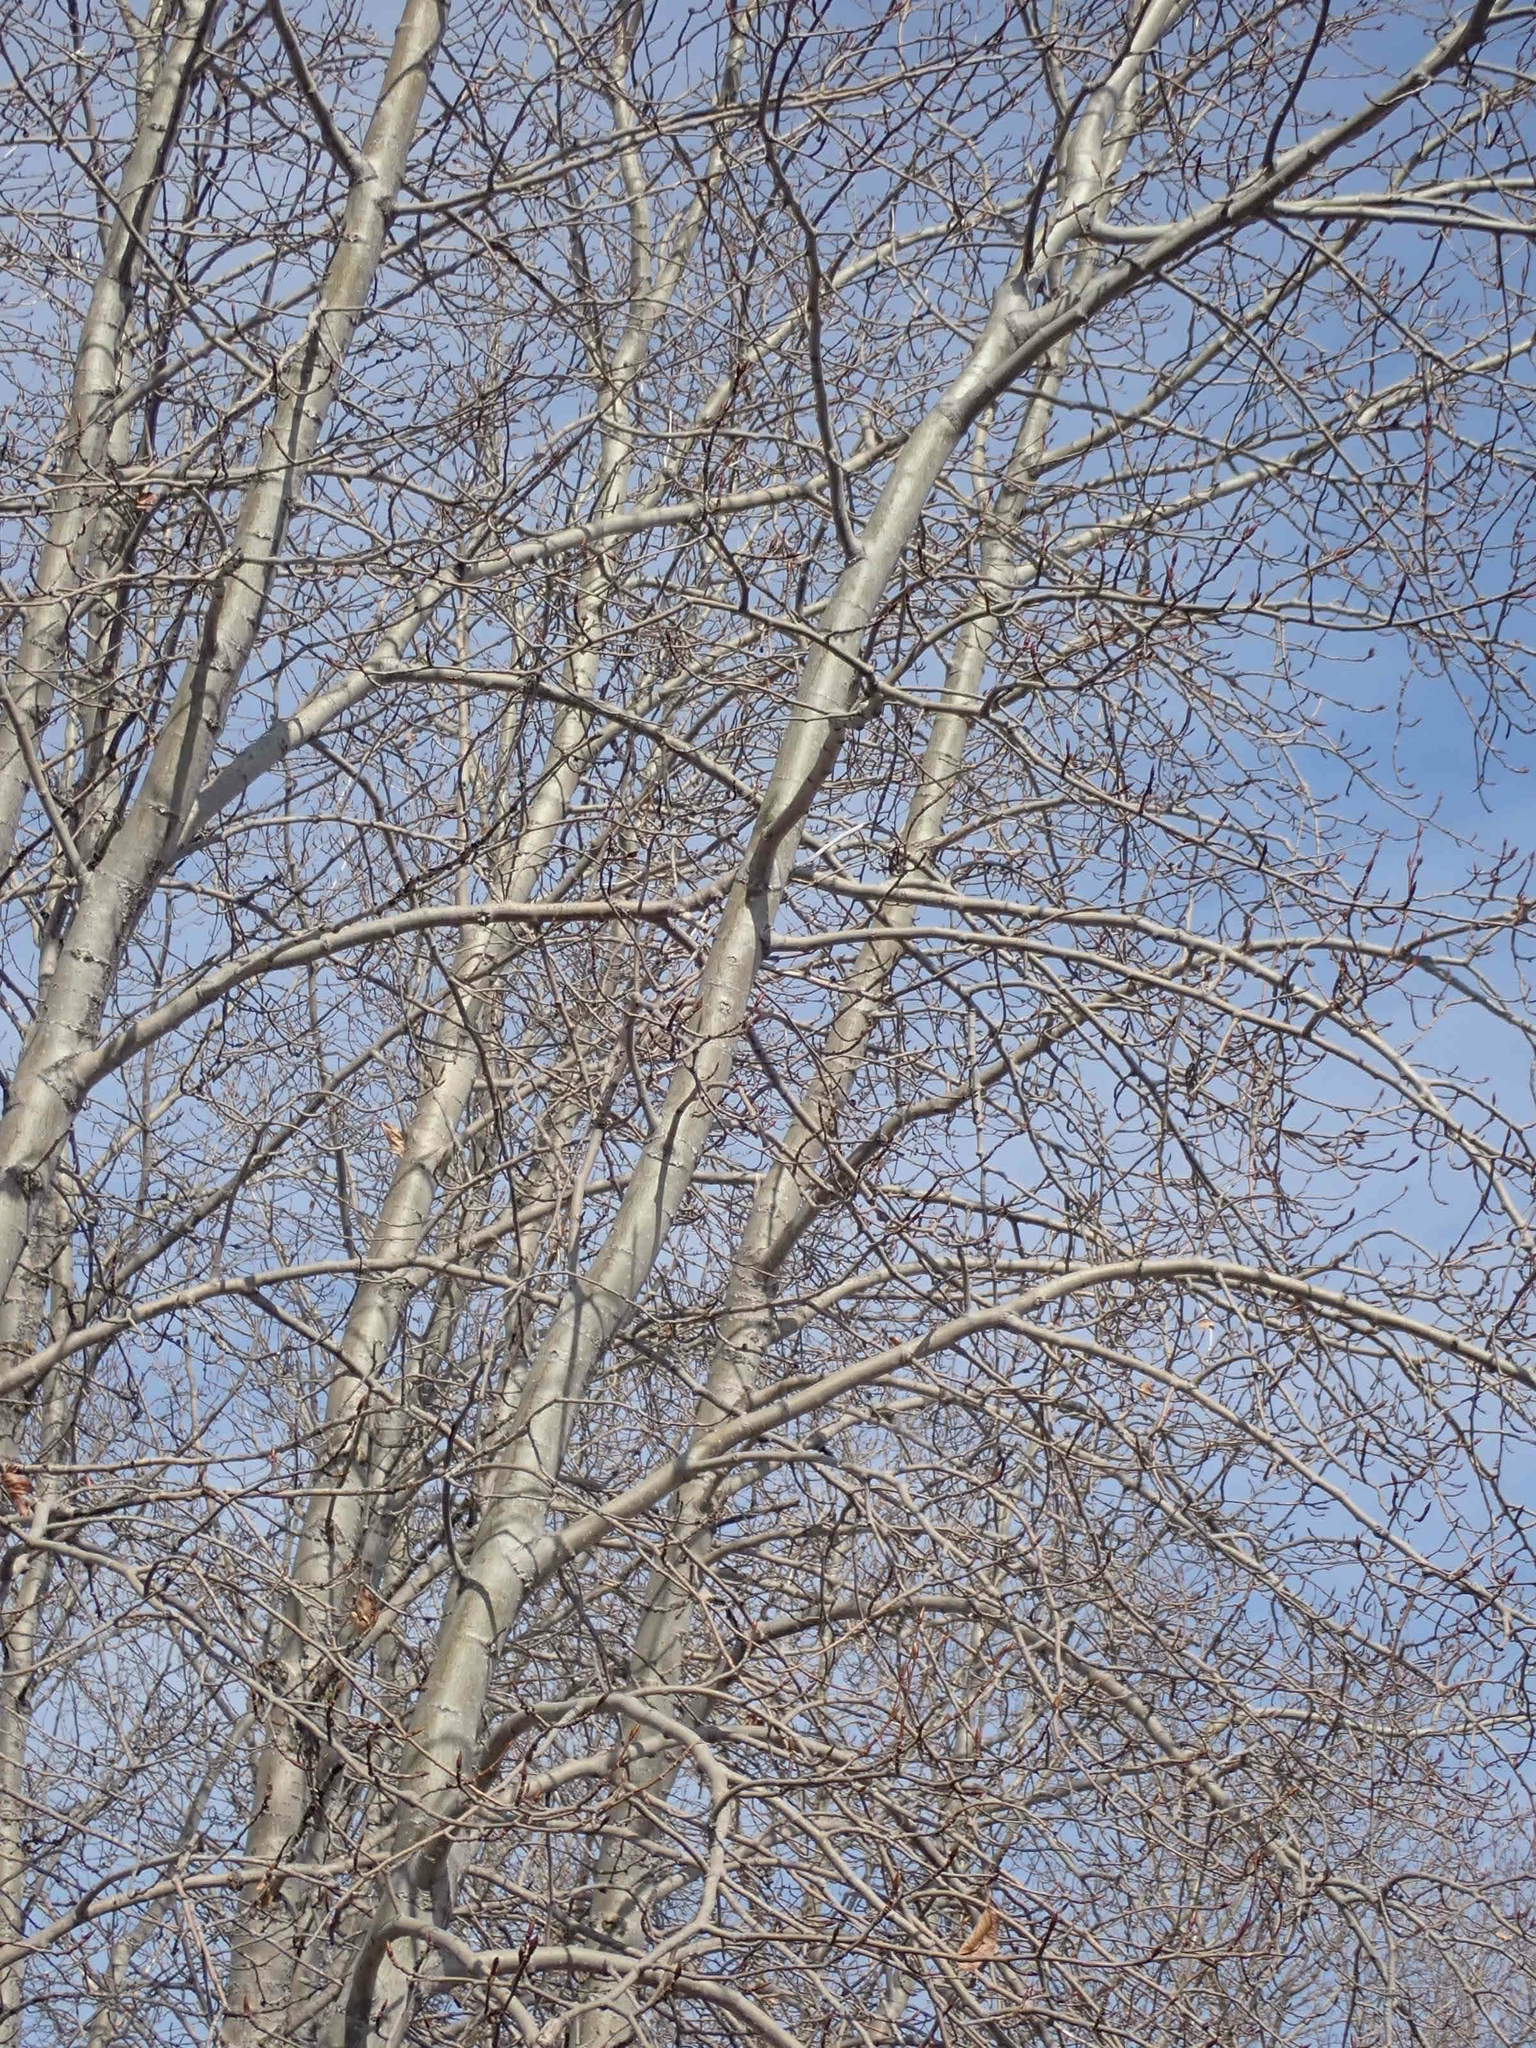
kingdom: Plantae
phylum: Tracheophyta
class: Magnoliopsida
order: Malpighiales
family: Salicaceae
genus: Populus
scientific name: Populus balsamifera
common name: Balsam poplar
